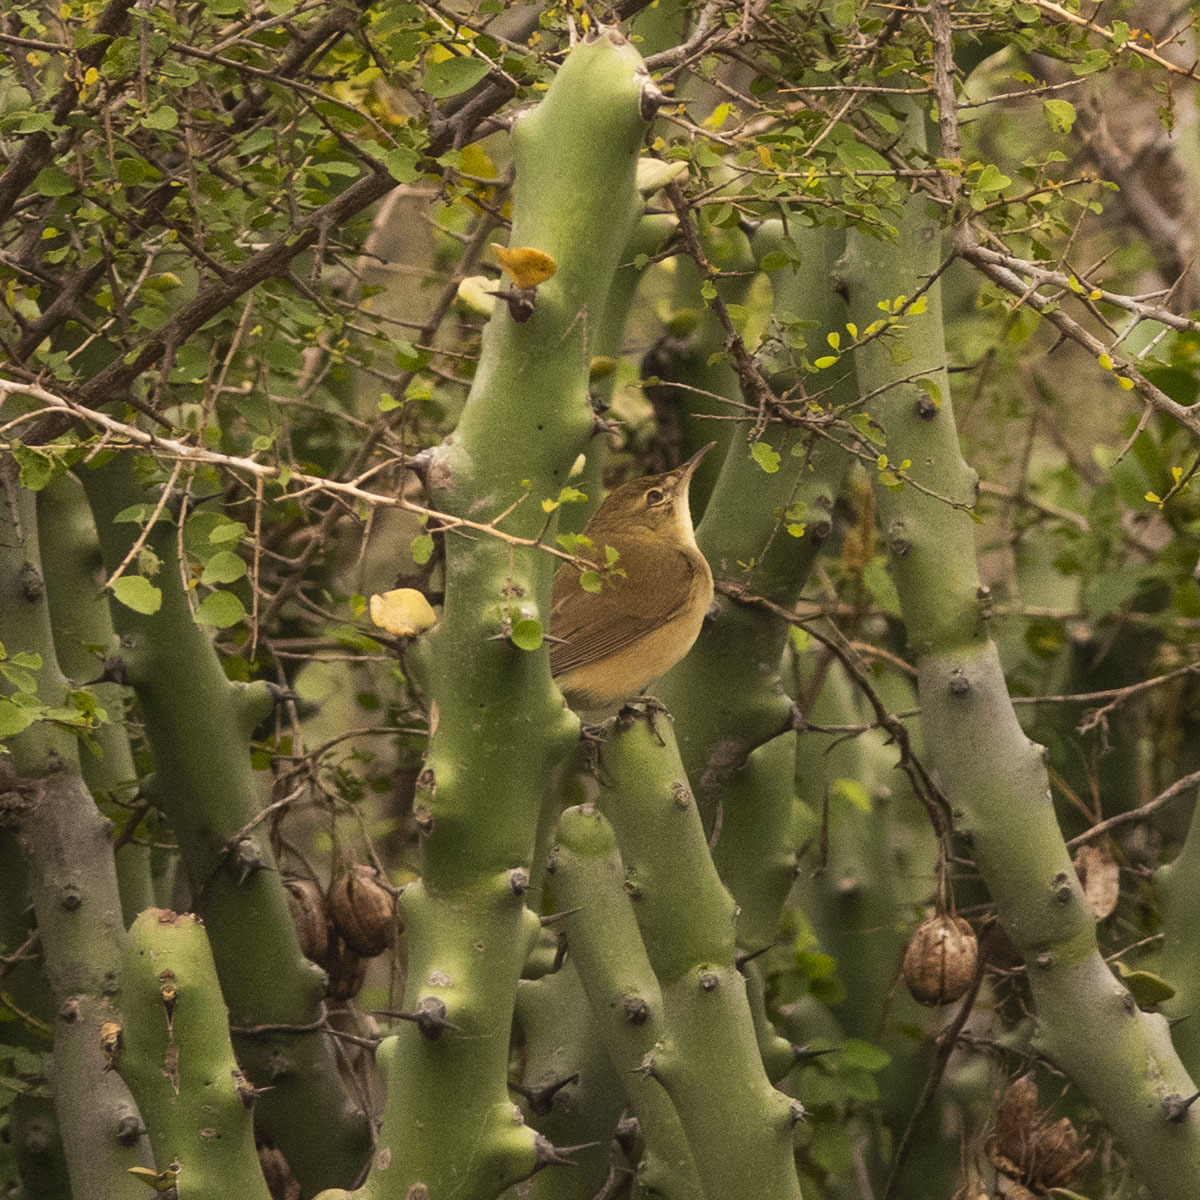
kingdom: Animalia
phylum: Chordata
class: Aves
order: Passeriformes
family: Acrocephalidae
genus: Iduna
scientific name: Iduna caligata
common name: Booted warbler
